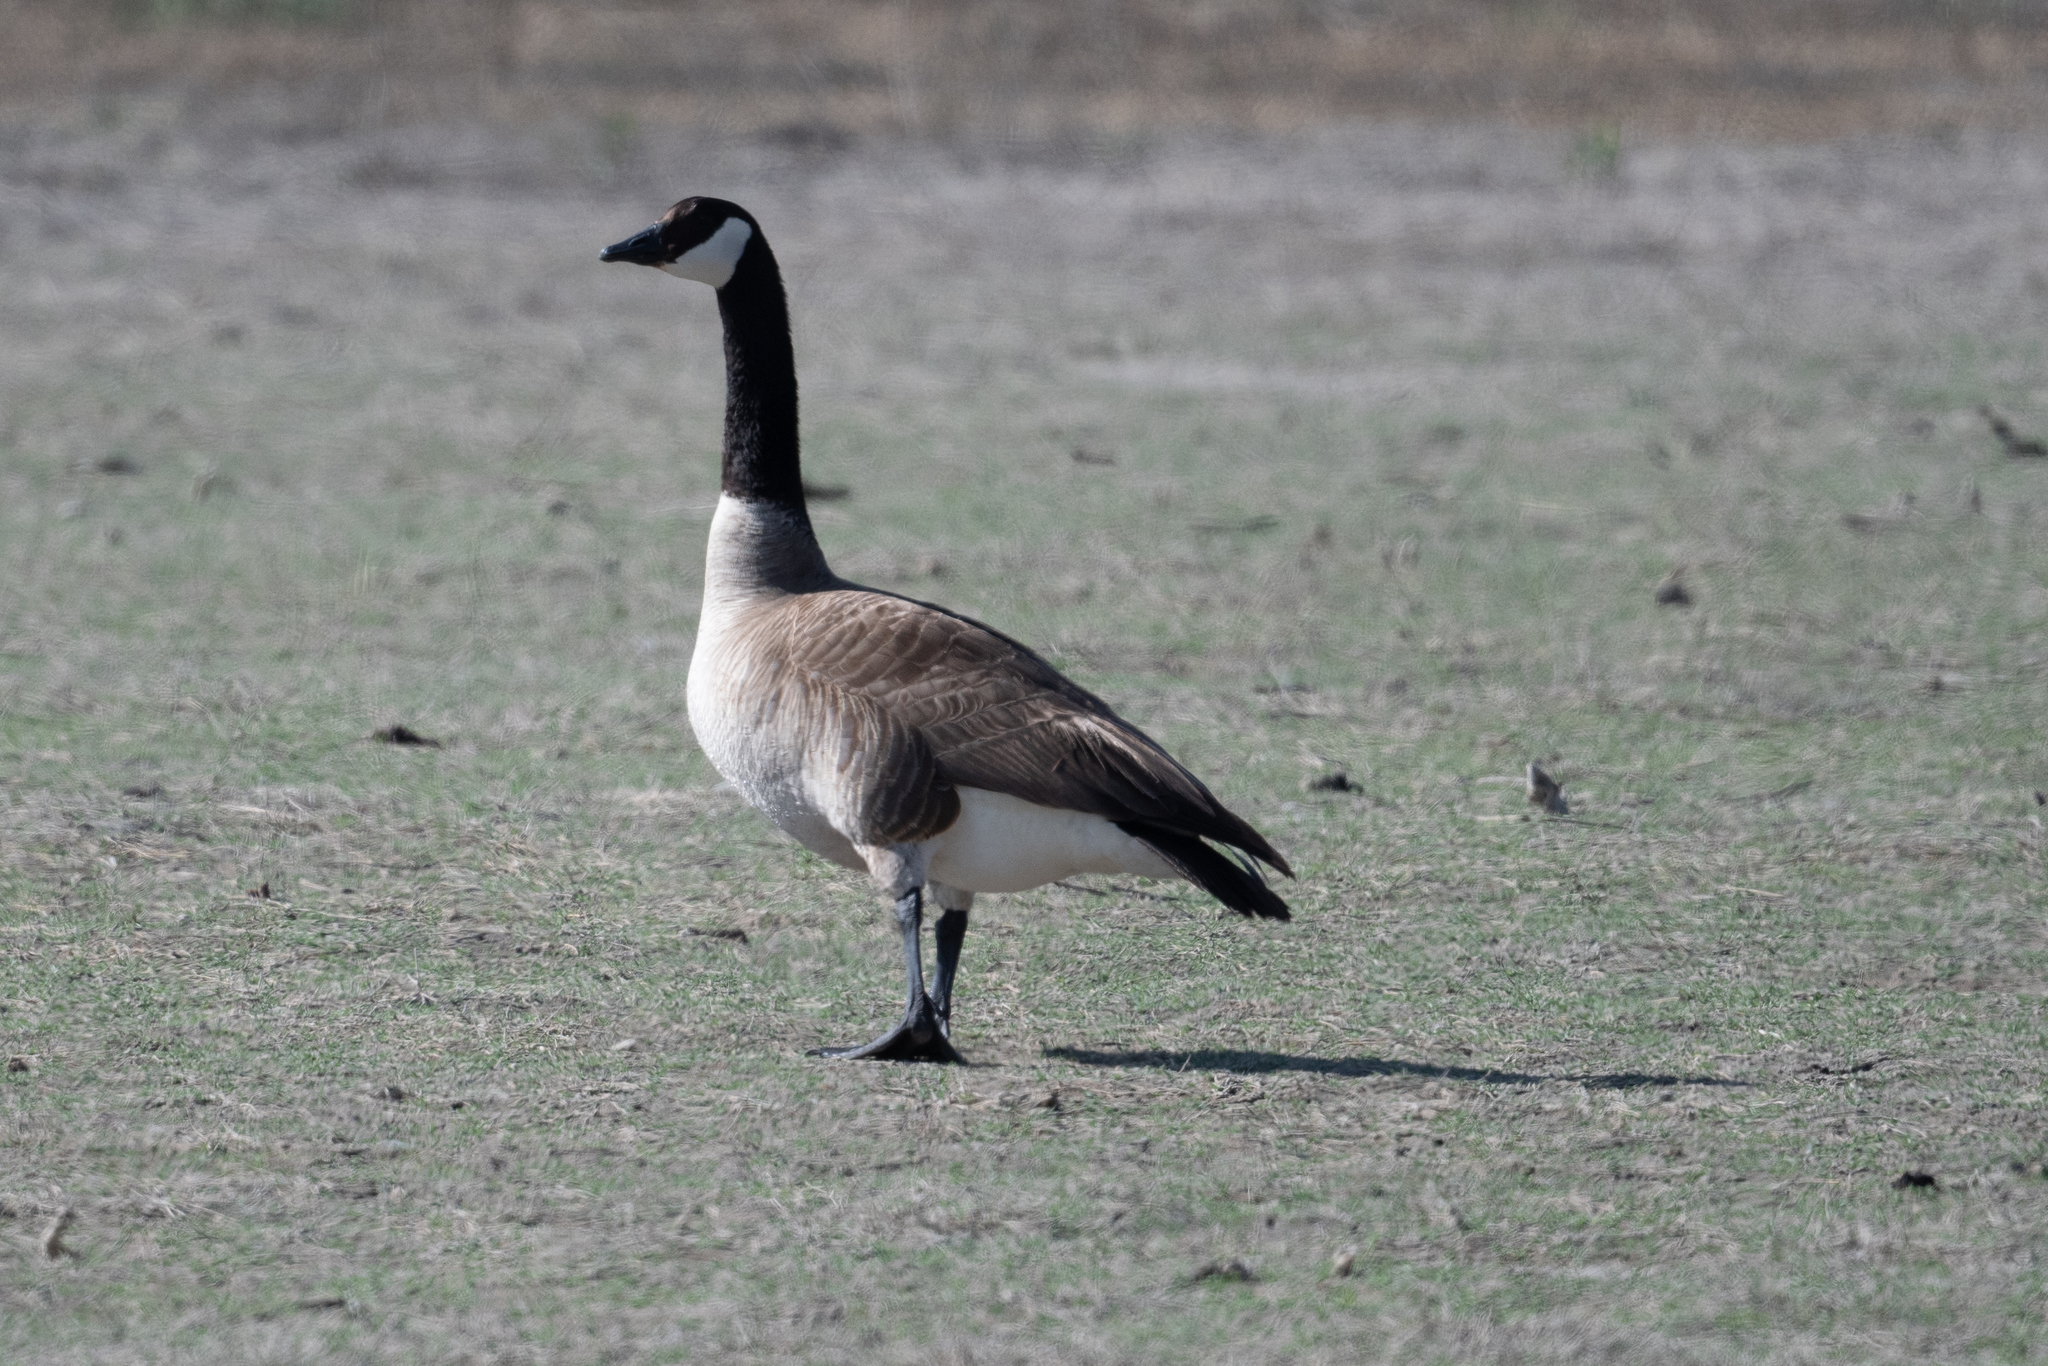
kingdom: Animalia
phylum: Chordata
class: Aves
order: Anseriformes
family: Anatidae
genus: Branta
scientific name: Branta canadensis
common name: Canada goose
